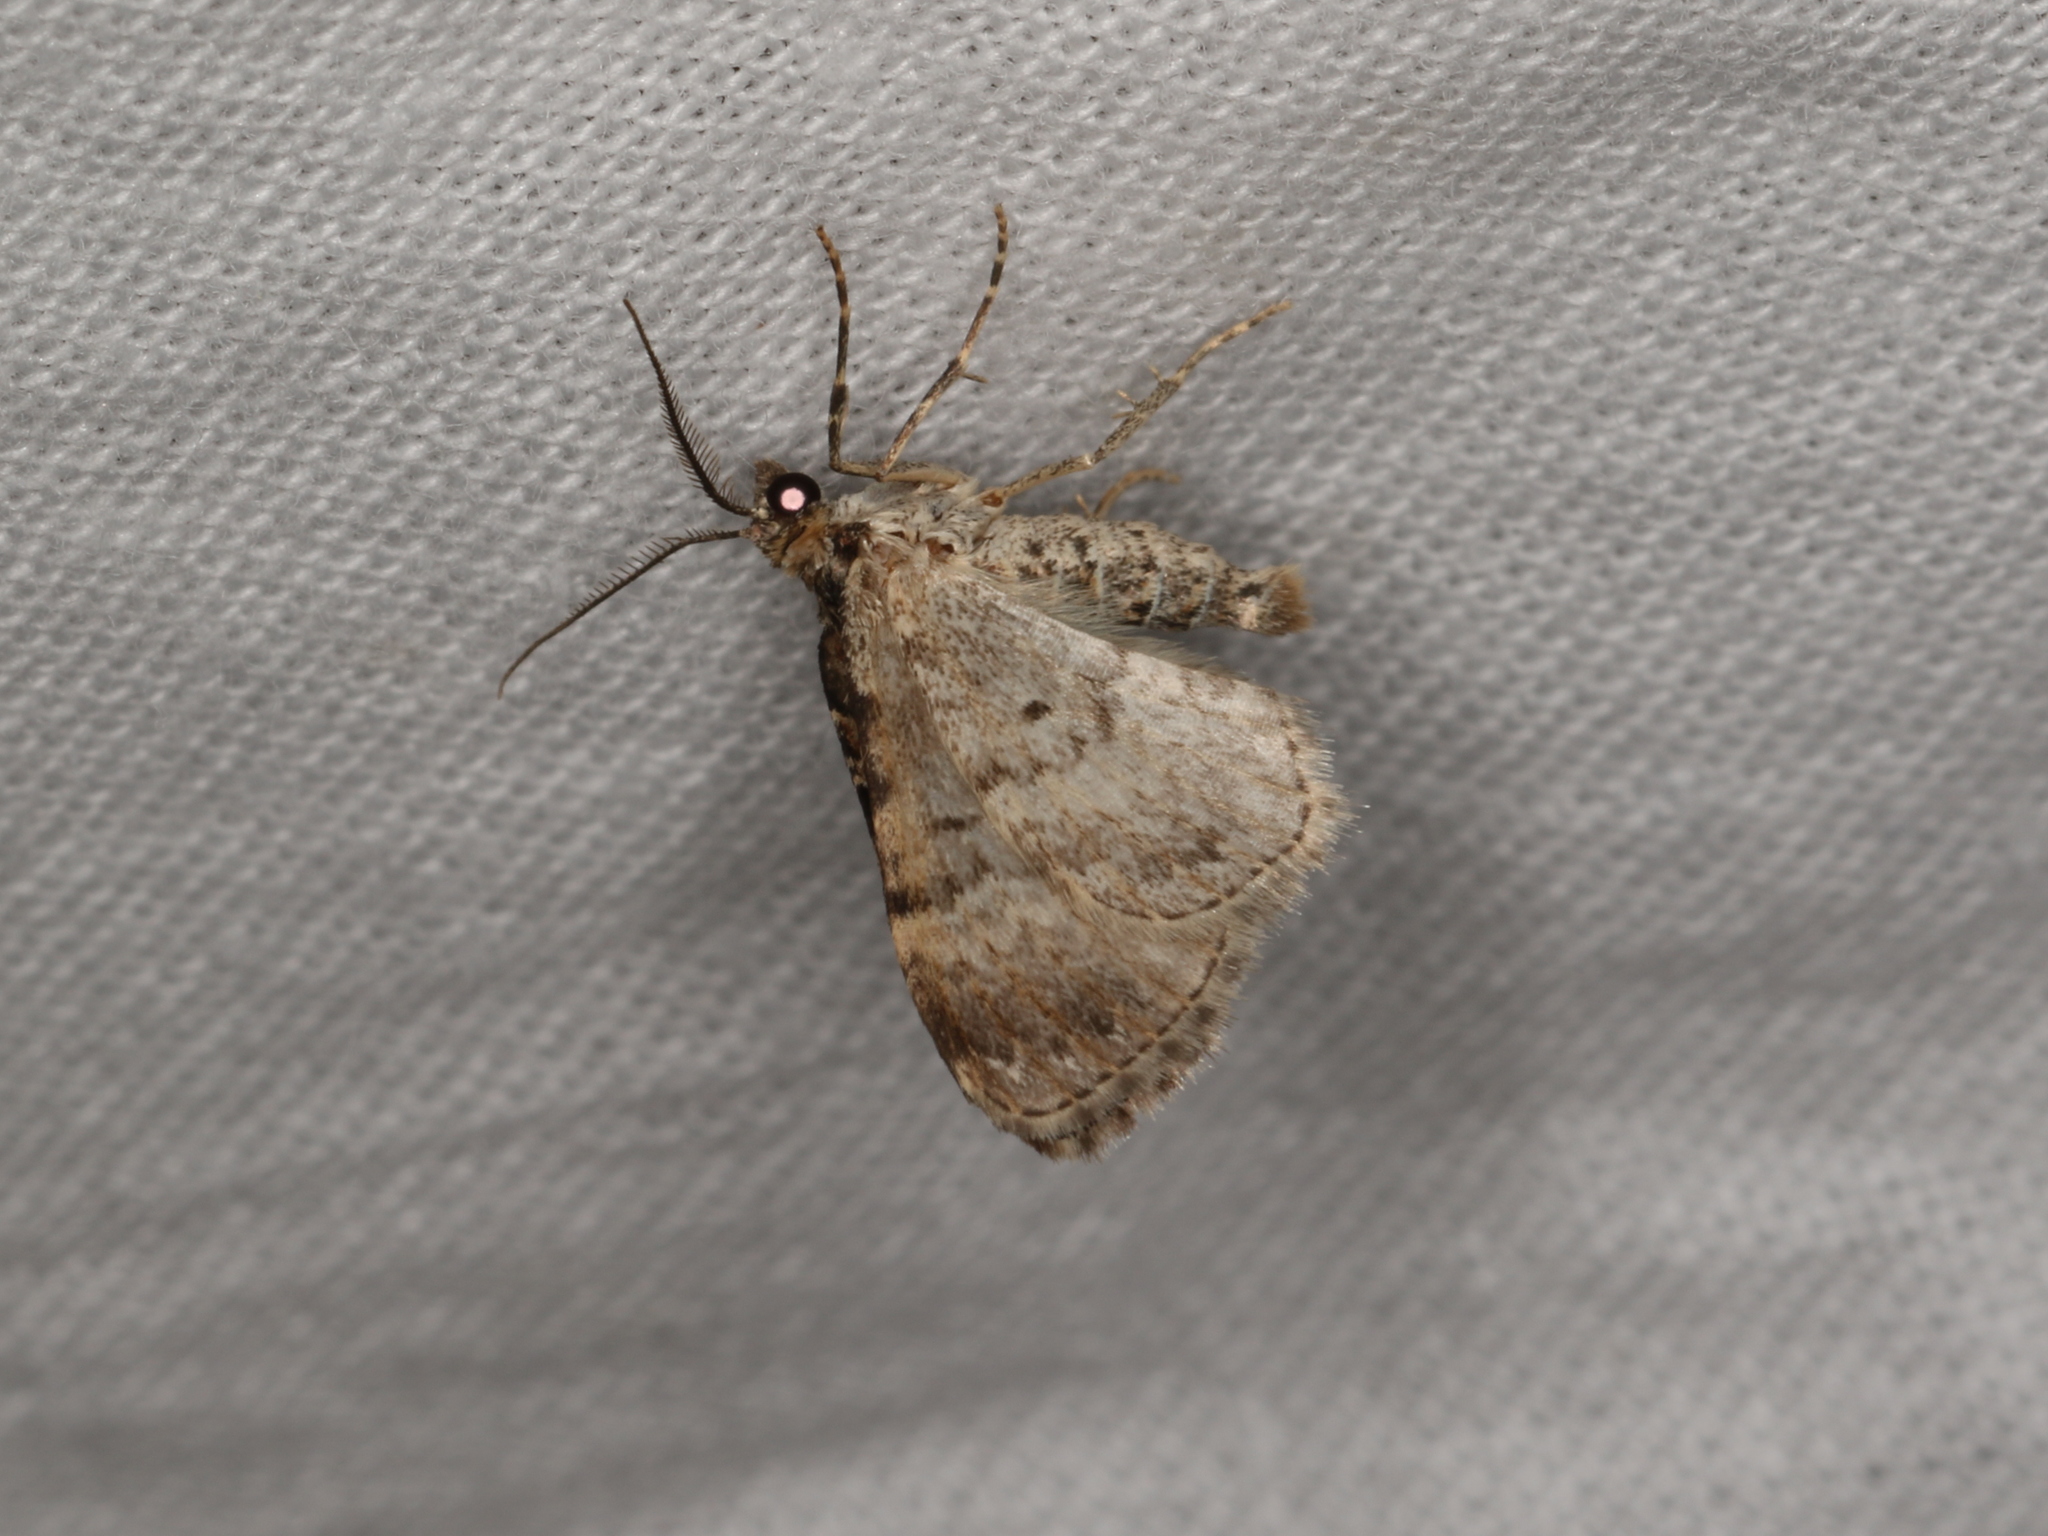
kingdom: Animalia
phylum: Arthropoda
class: Insecta
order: Lepidoptera
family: Geometridae
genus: Xanthorhoe
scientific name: Xanthorhoe ferrugata
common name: Dark-barred twin-spot carpet
